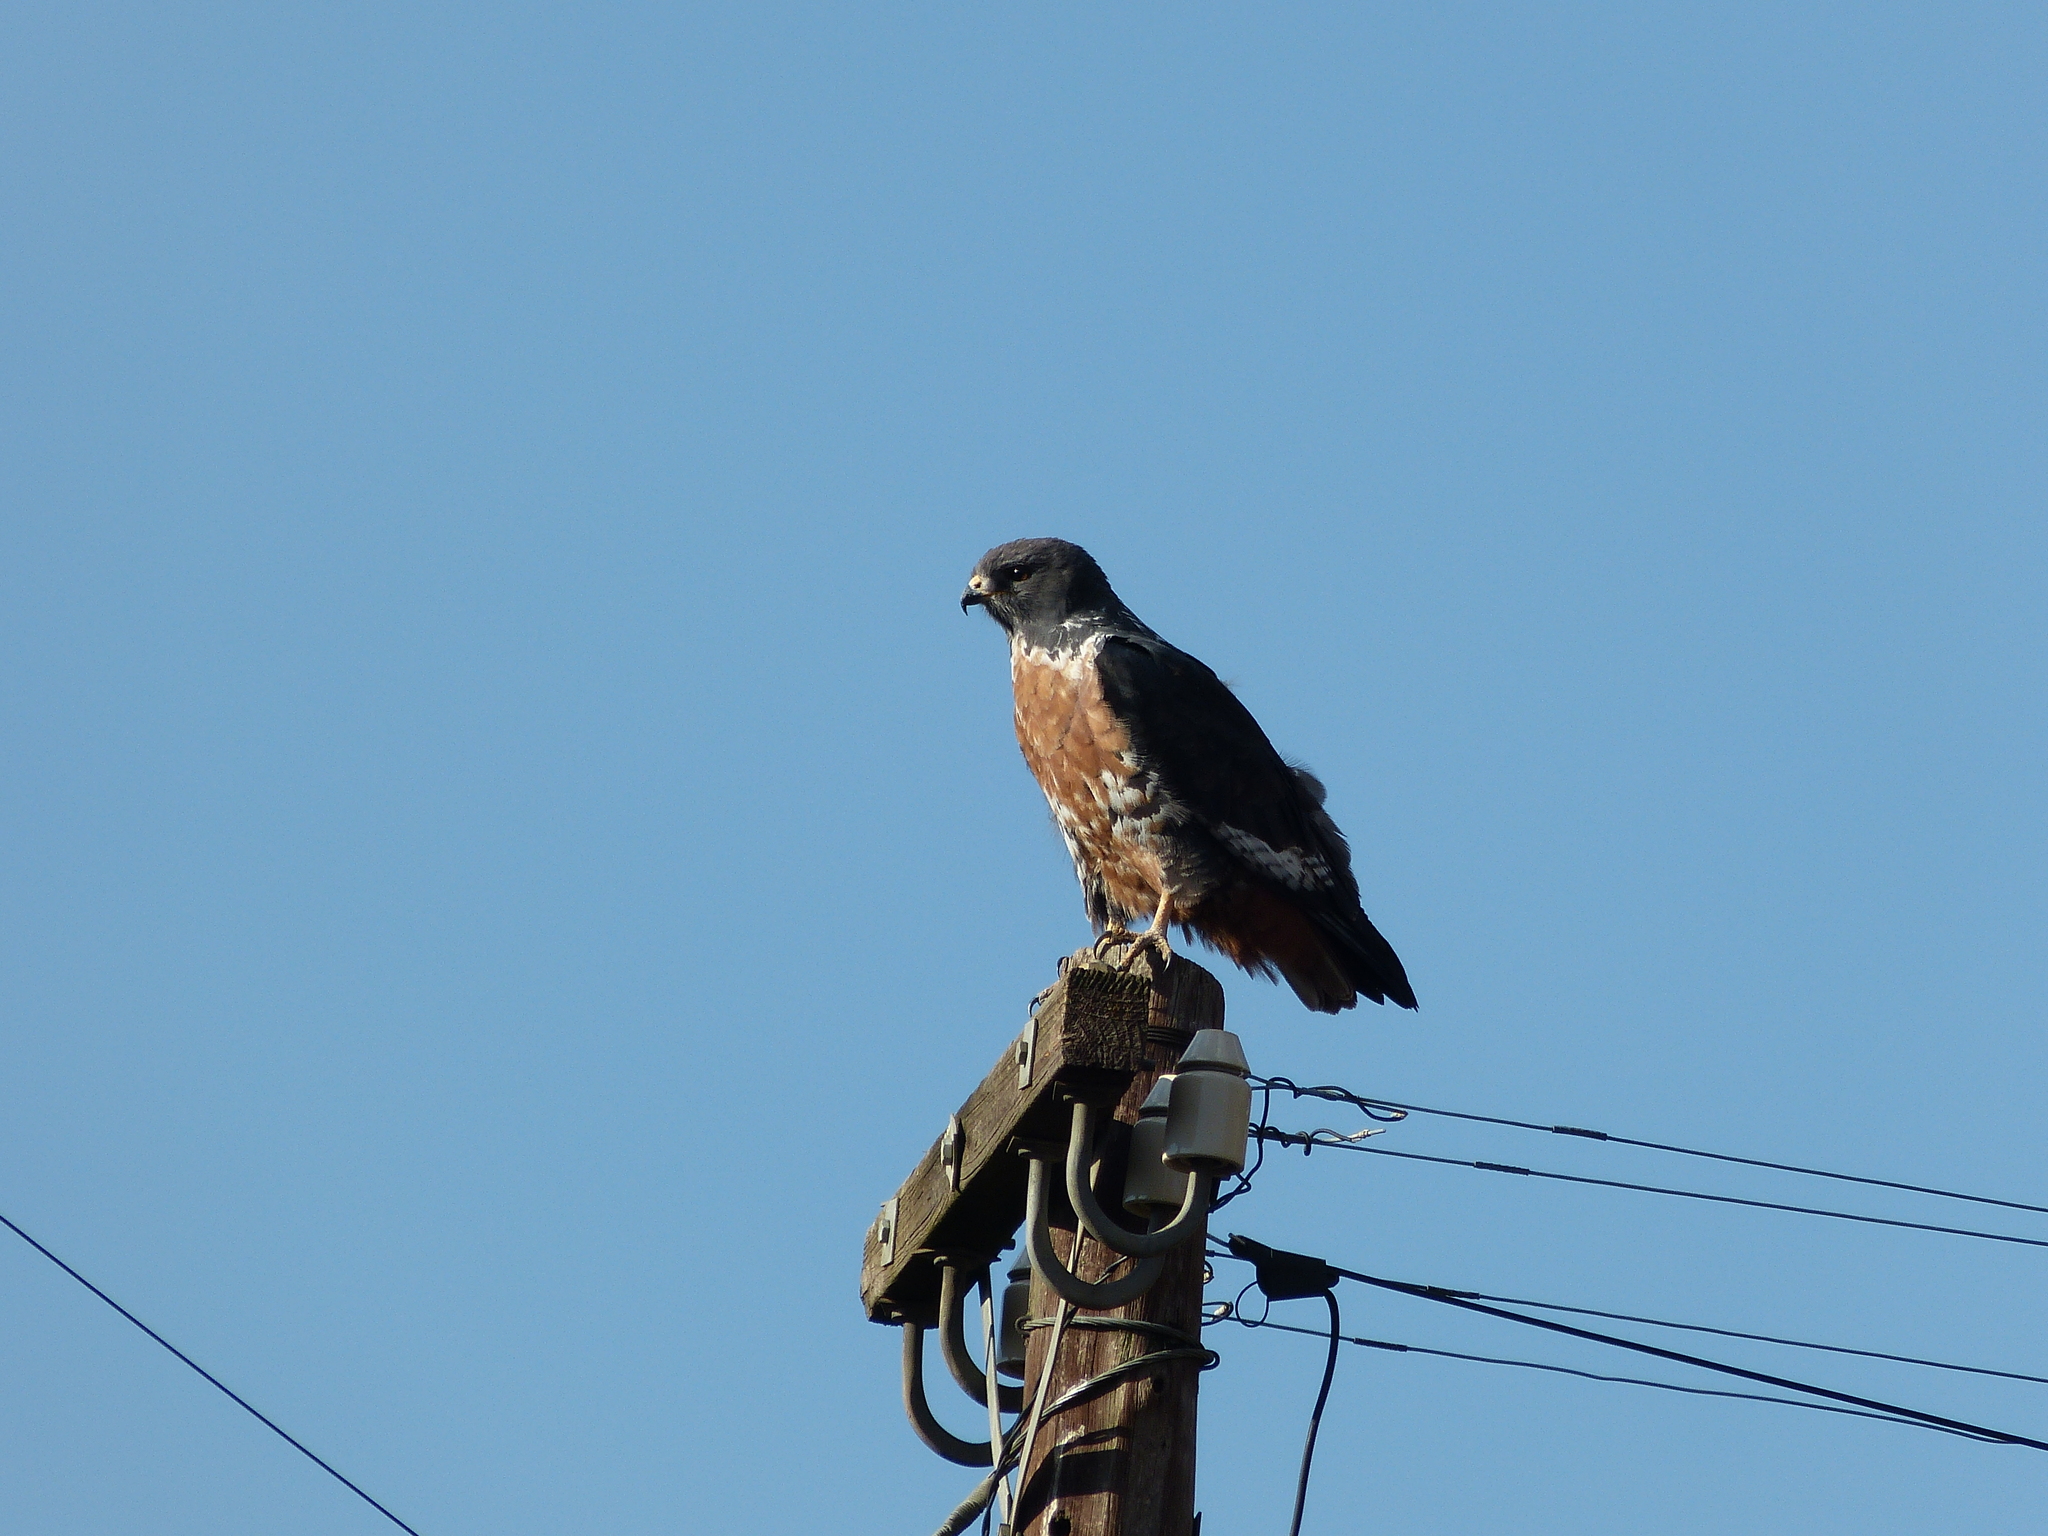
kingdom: Animalia
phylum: Chordata
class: Aves
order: Accipitriformes
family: Accipitridae
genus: Buteo
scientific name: Buteo rufofuscus
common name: Jackal buzzard
